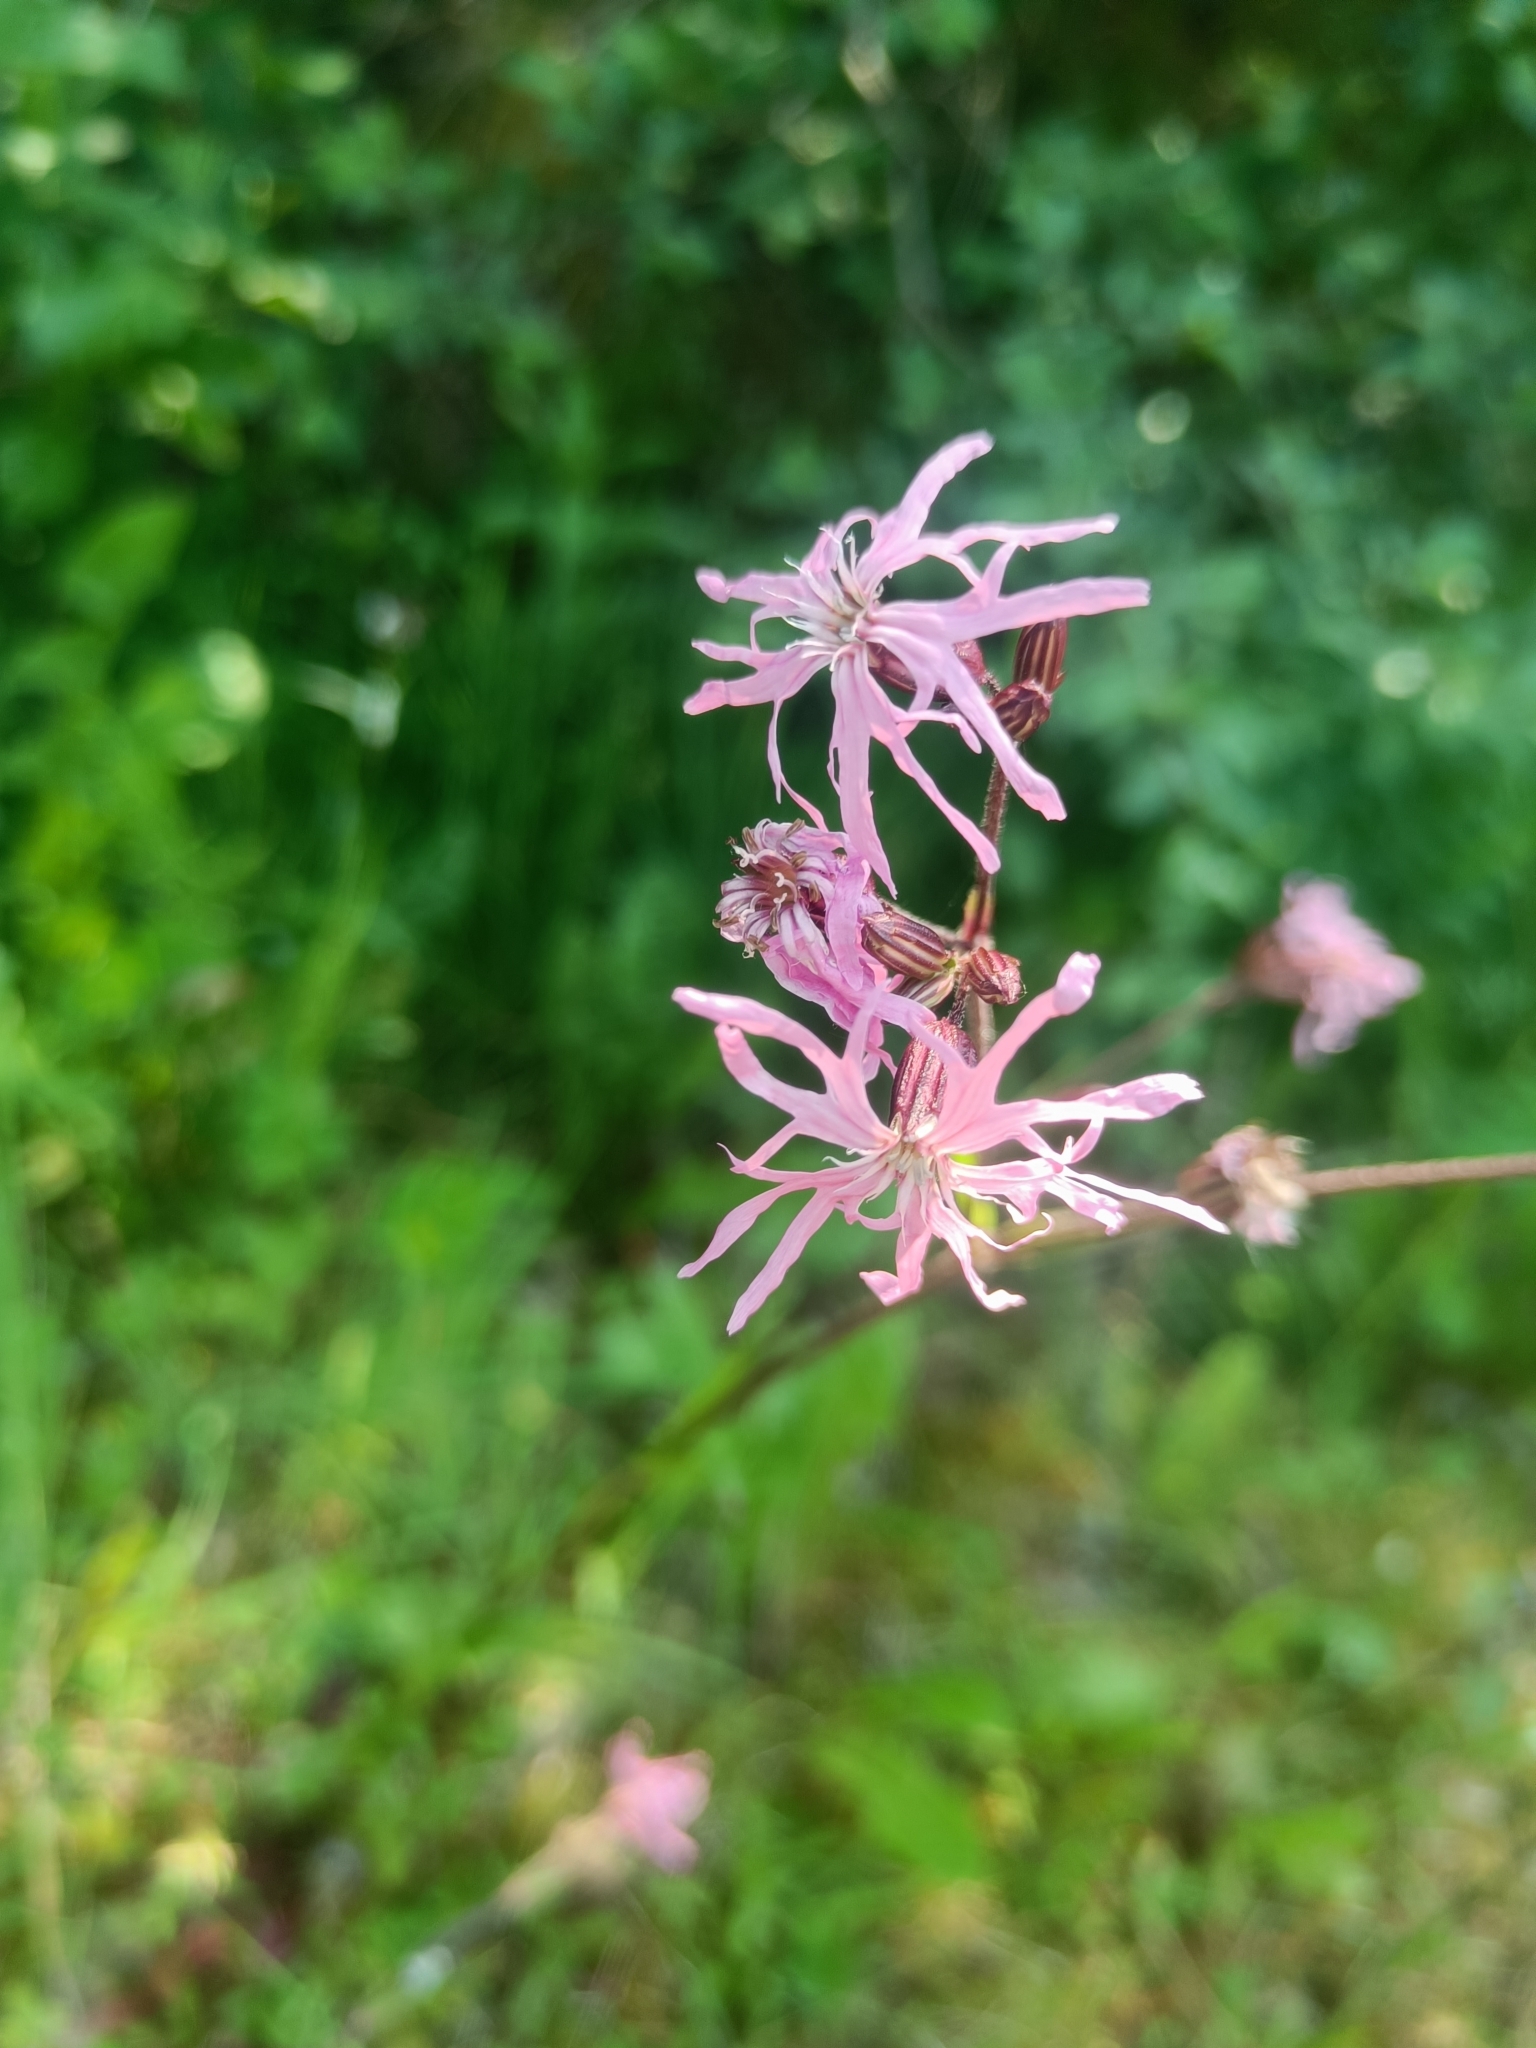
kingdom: Plantae
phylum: Tracheophyta
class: Magnoliopsida
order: Caryophyllales
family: Caryophyllaceae
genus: Silene
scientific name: Silene flos-cuculi
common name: Ragged-robin
